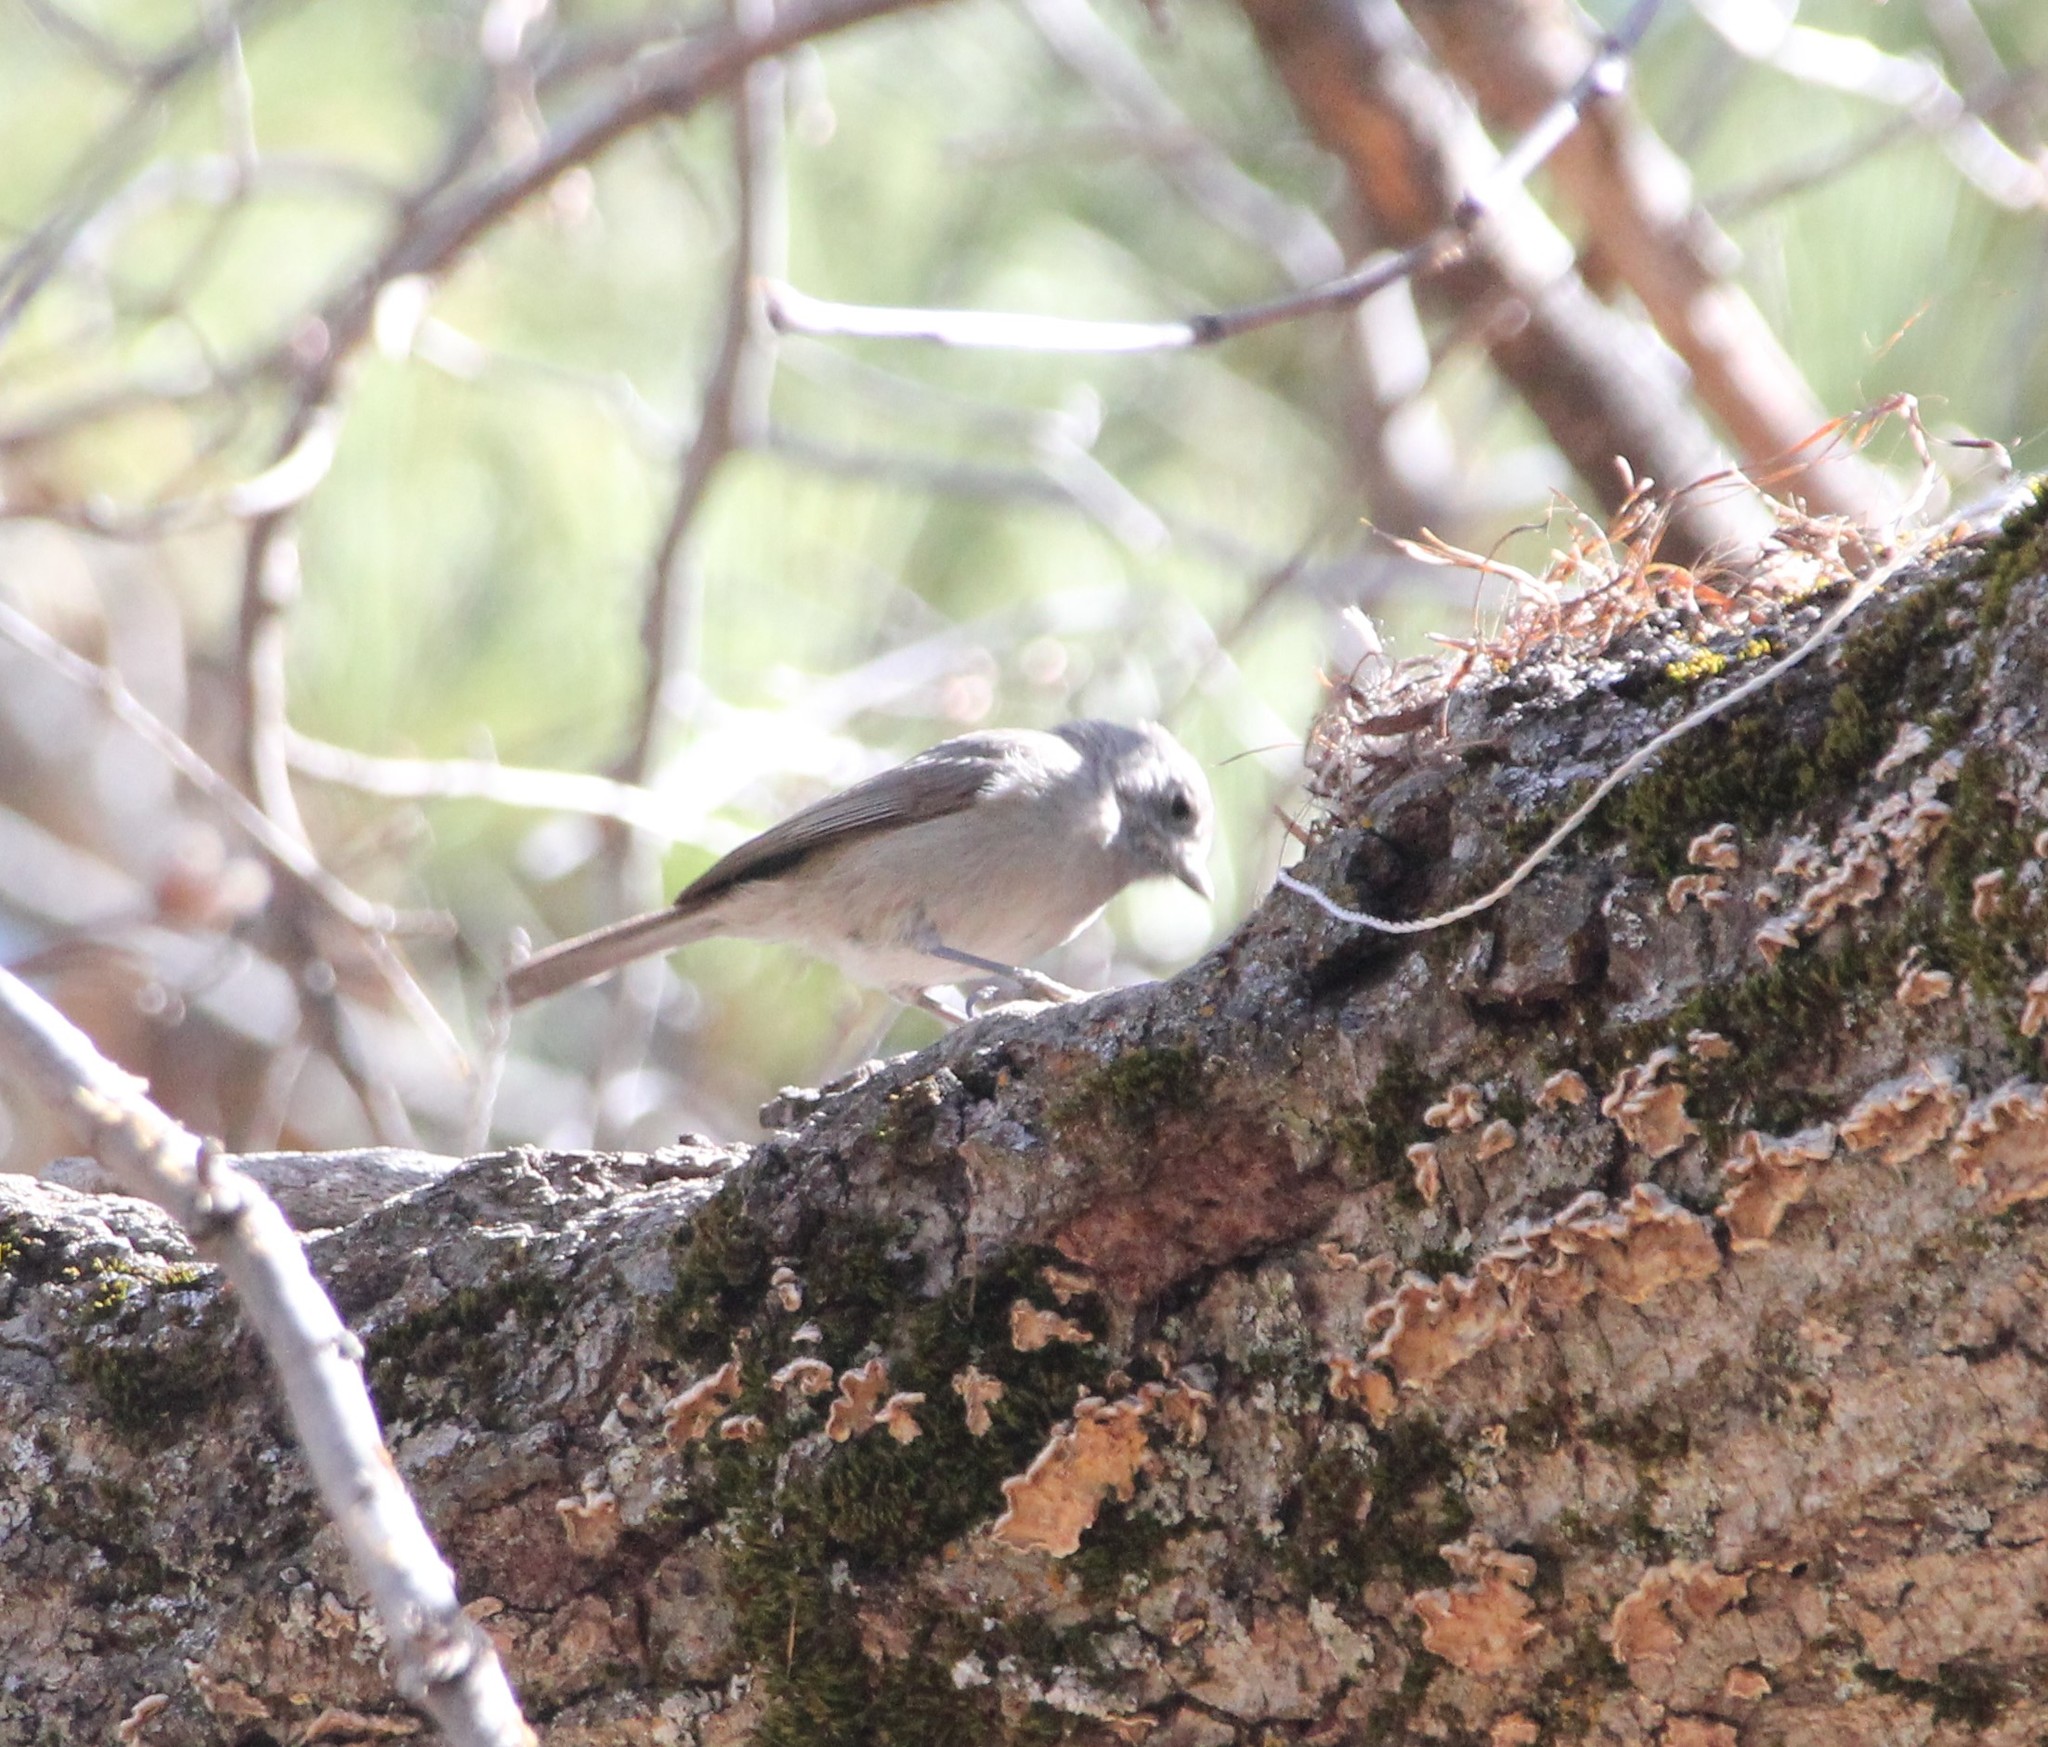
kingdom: Animalia
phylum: Chordata
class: Aves
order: Passeriformes
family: Paridae
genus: Baeolophus
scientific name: Baeolophus inornatus
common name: Oak titmouse
